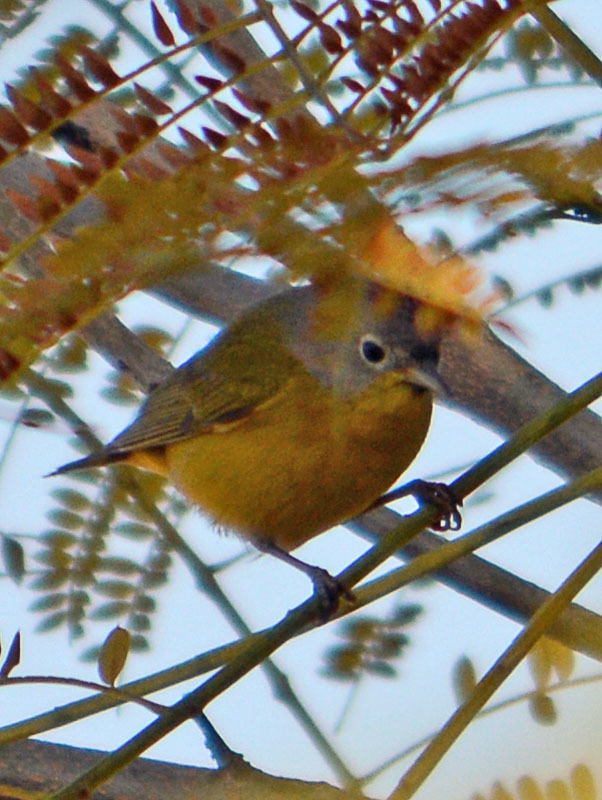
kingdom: Animalia
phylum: Chordata
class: Aves
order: Passeriformes
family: Parulidae
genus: Leiothlypis
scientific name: Leiothlypis ruficapilla
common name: Nashville warbler
